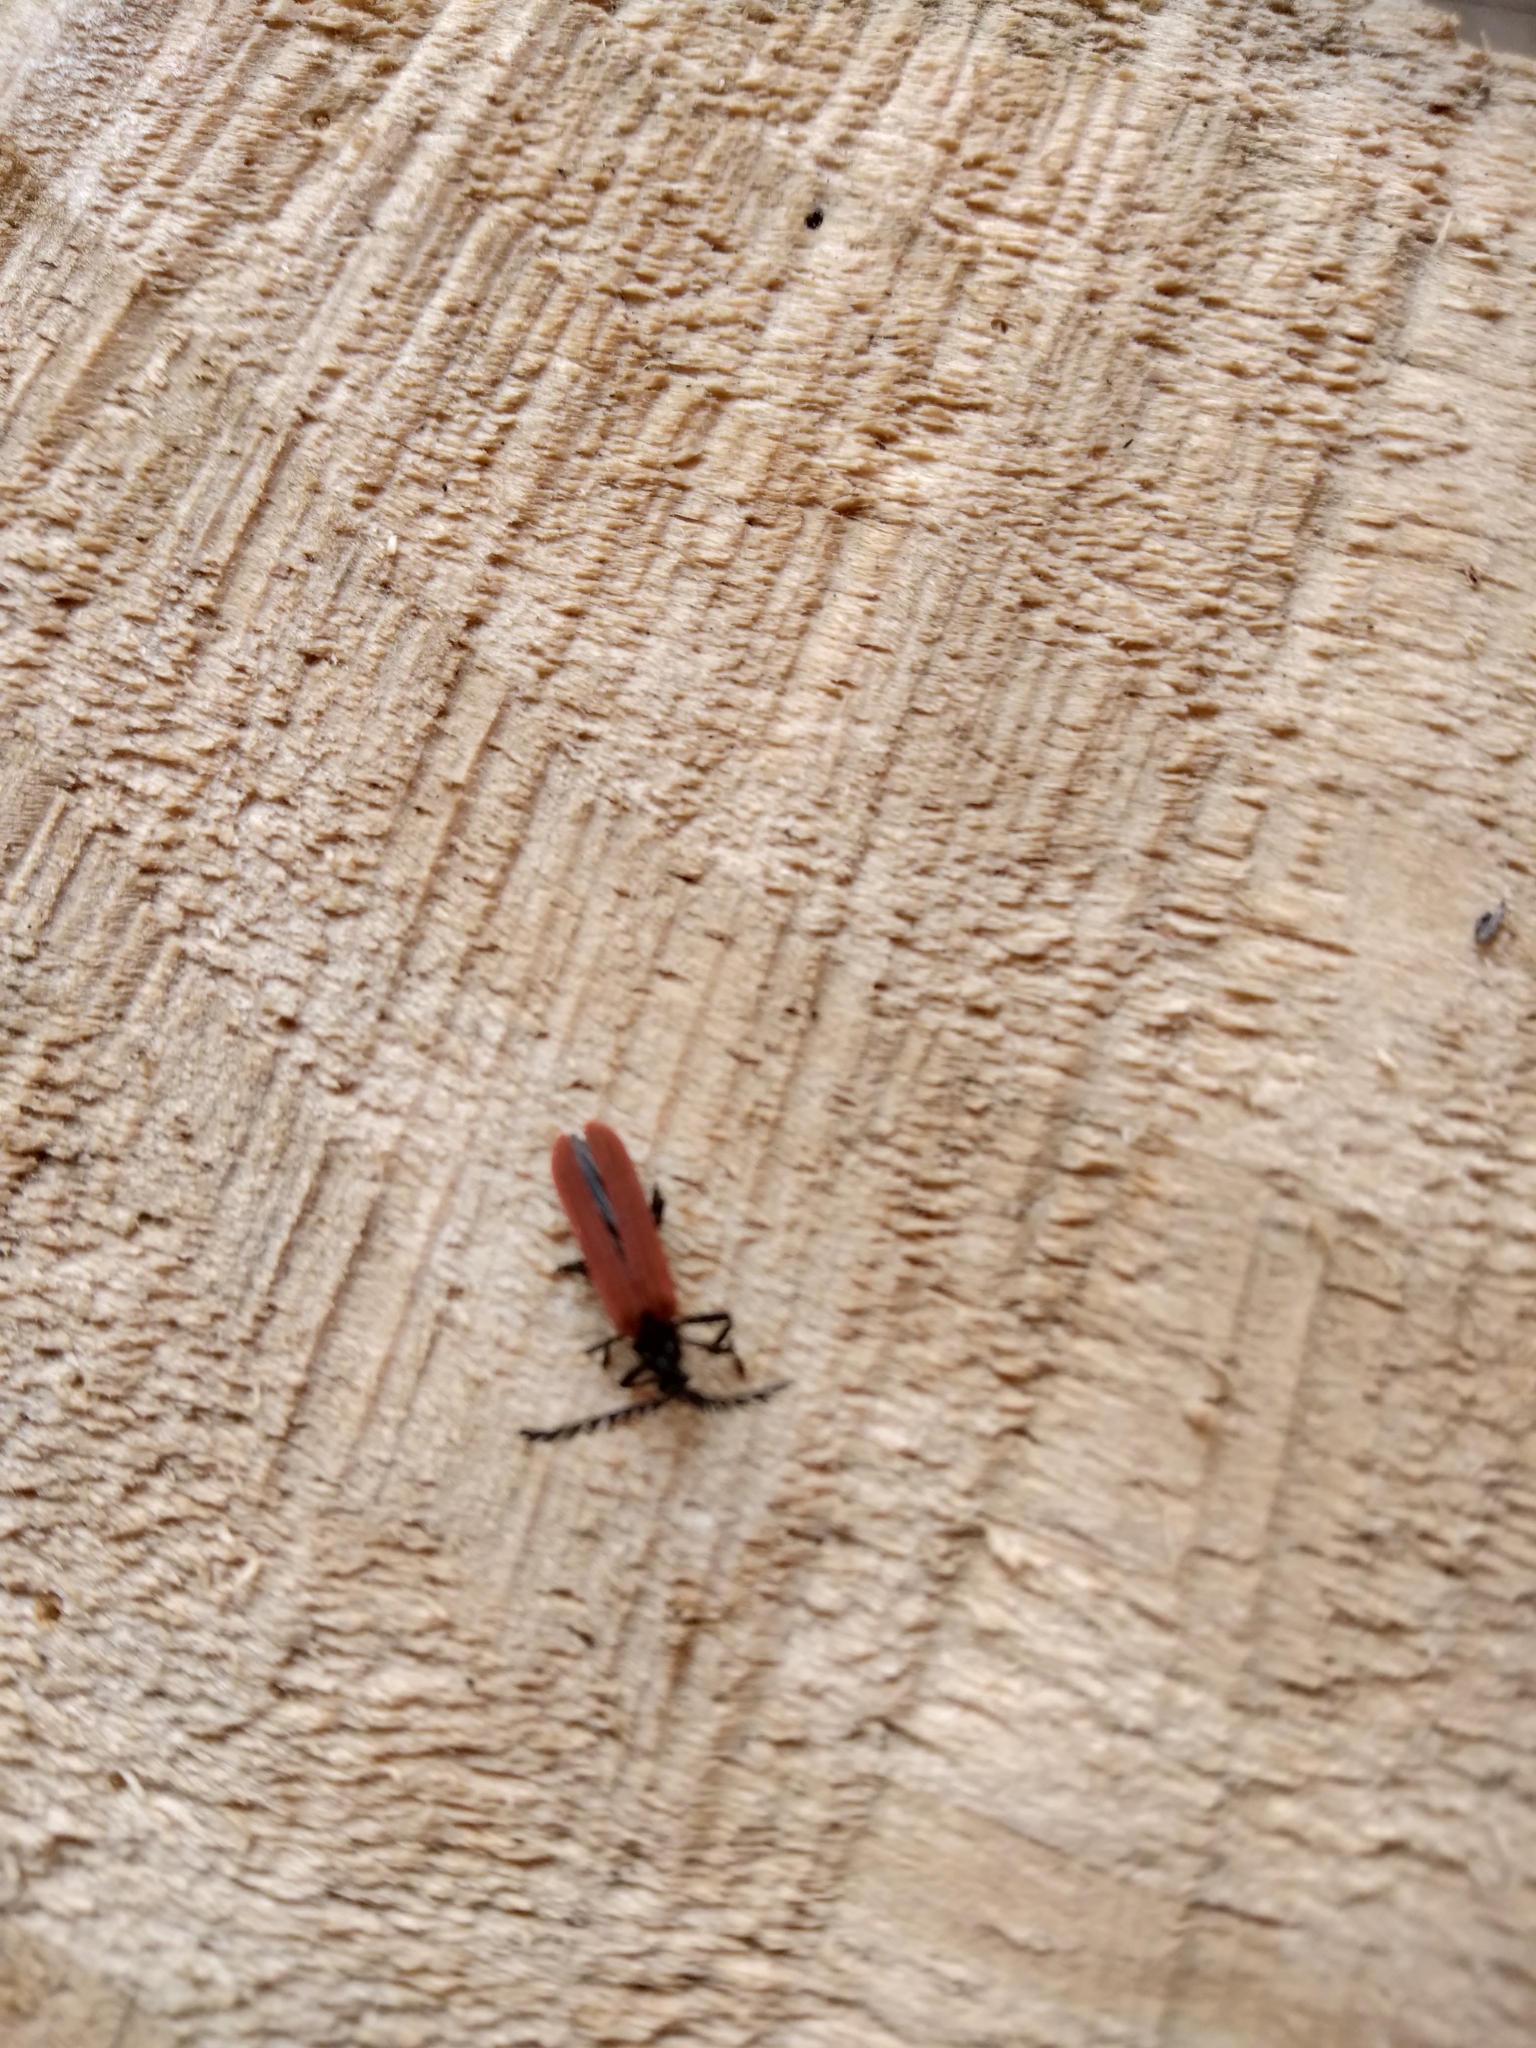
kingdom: Animalia
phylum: Arthropoda
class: Insecta
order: Coleoptera
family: Lycidae
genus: Porrostoma
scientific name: Porrostoma rufipenne
